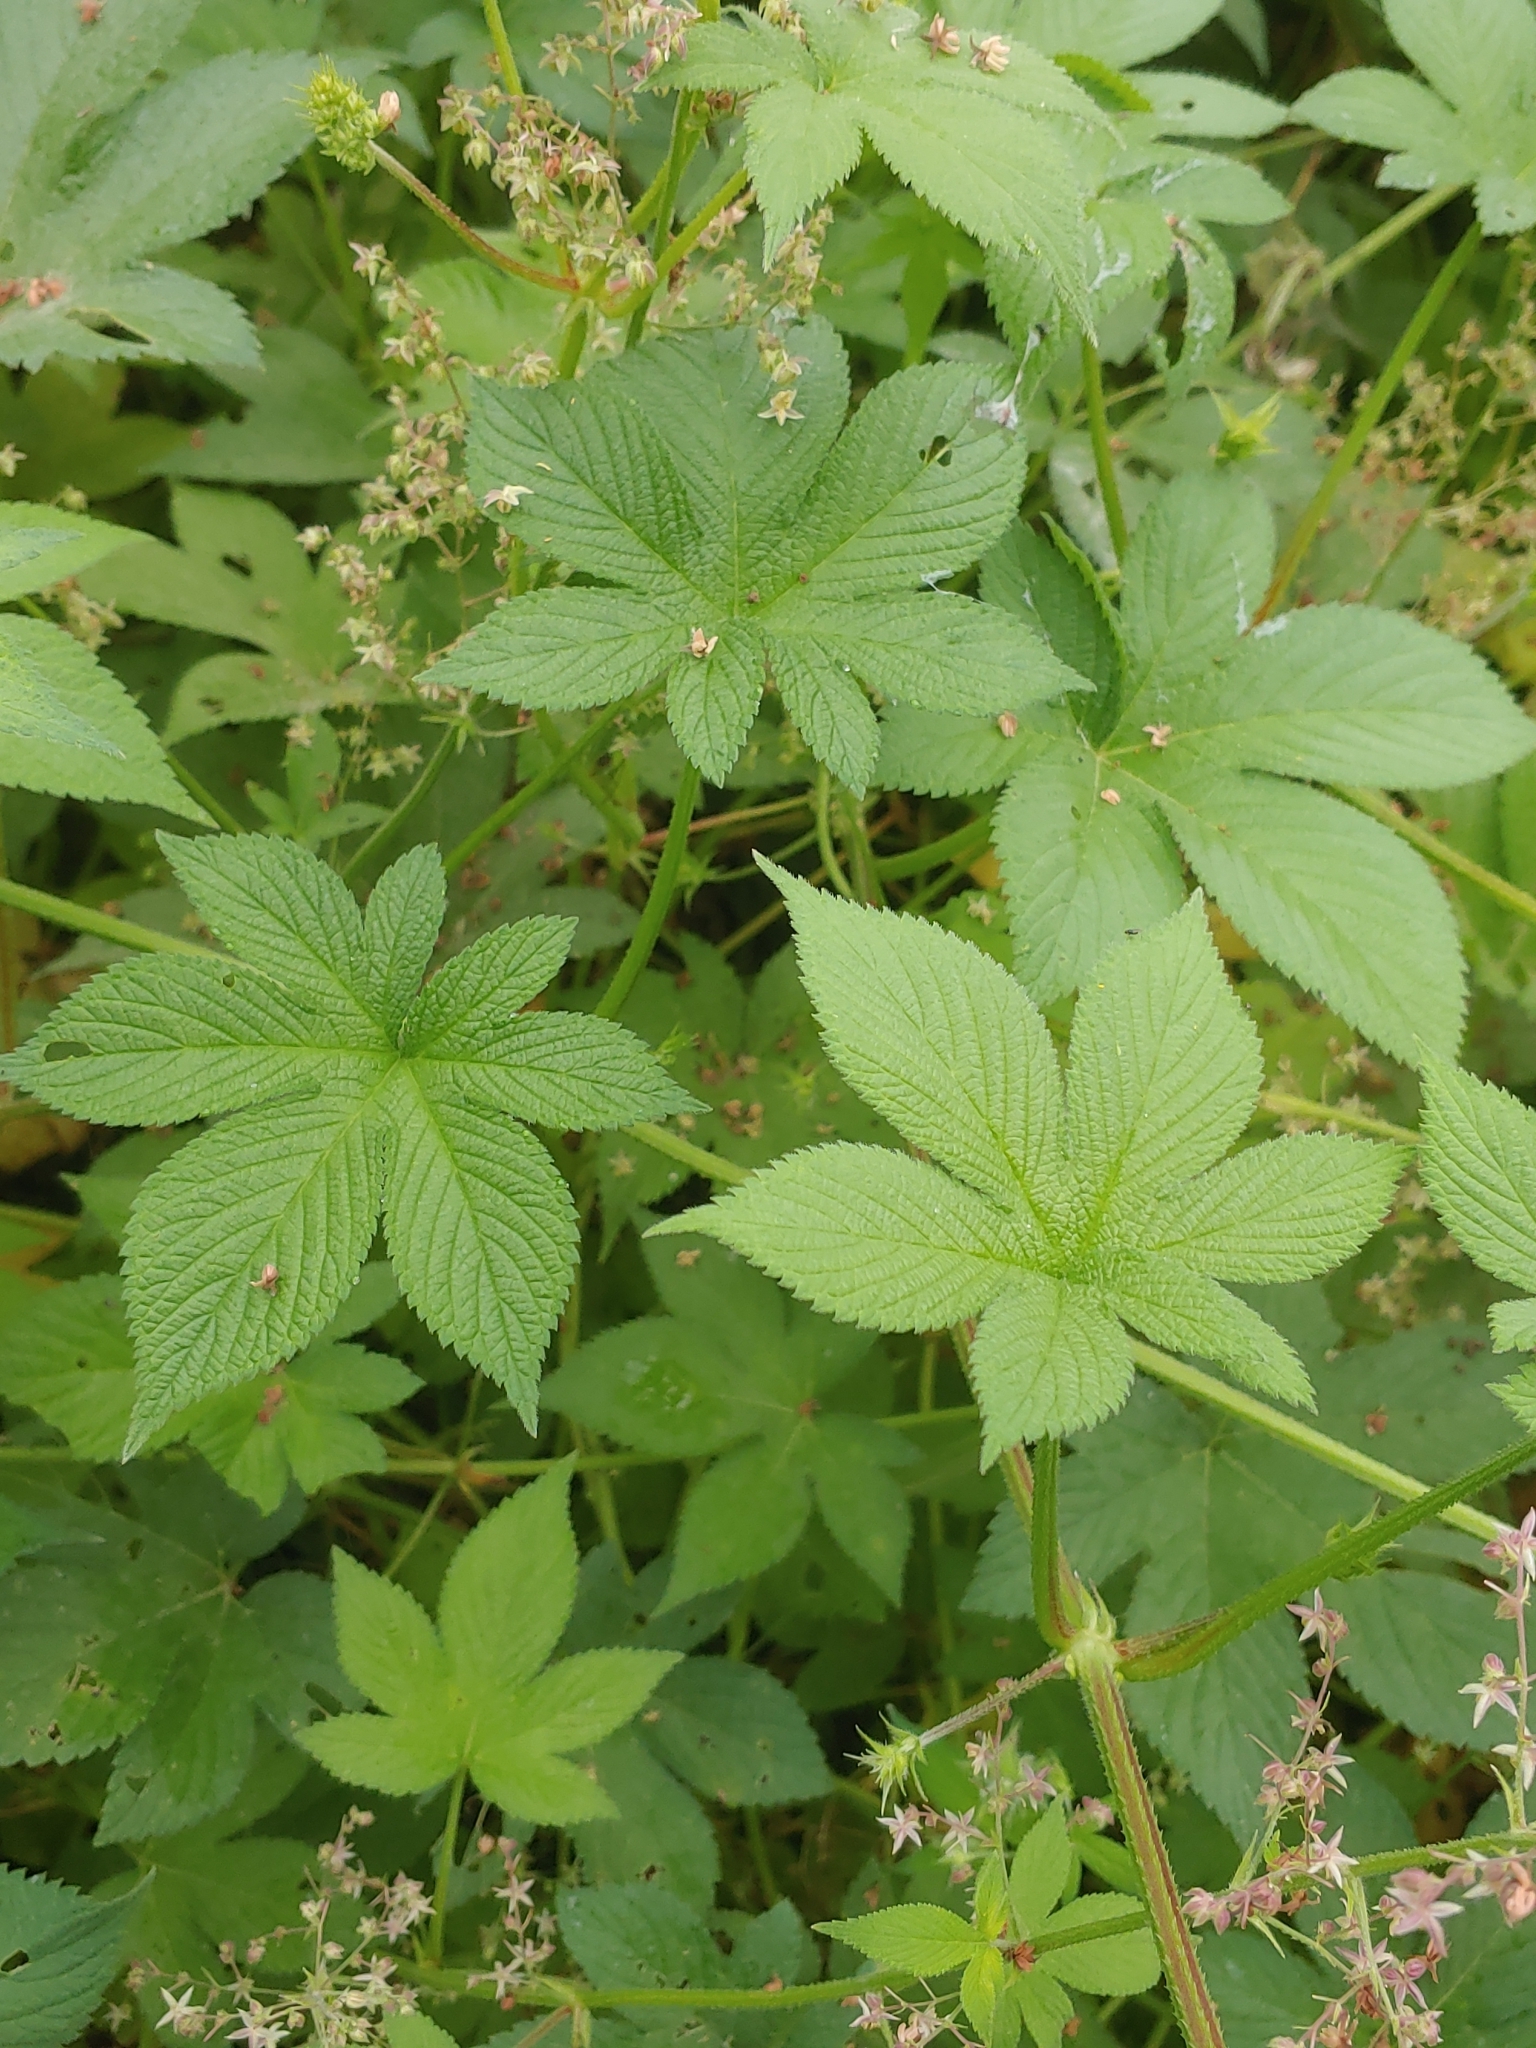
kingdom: Plantae
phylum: Tracheophyta
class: Magnoliopsida
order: Rosales
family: Cannabaceae
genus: Humulus
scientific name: Humulus scandens
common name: Japanese hop
